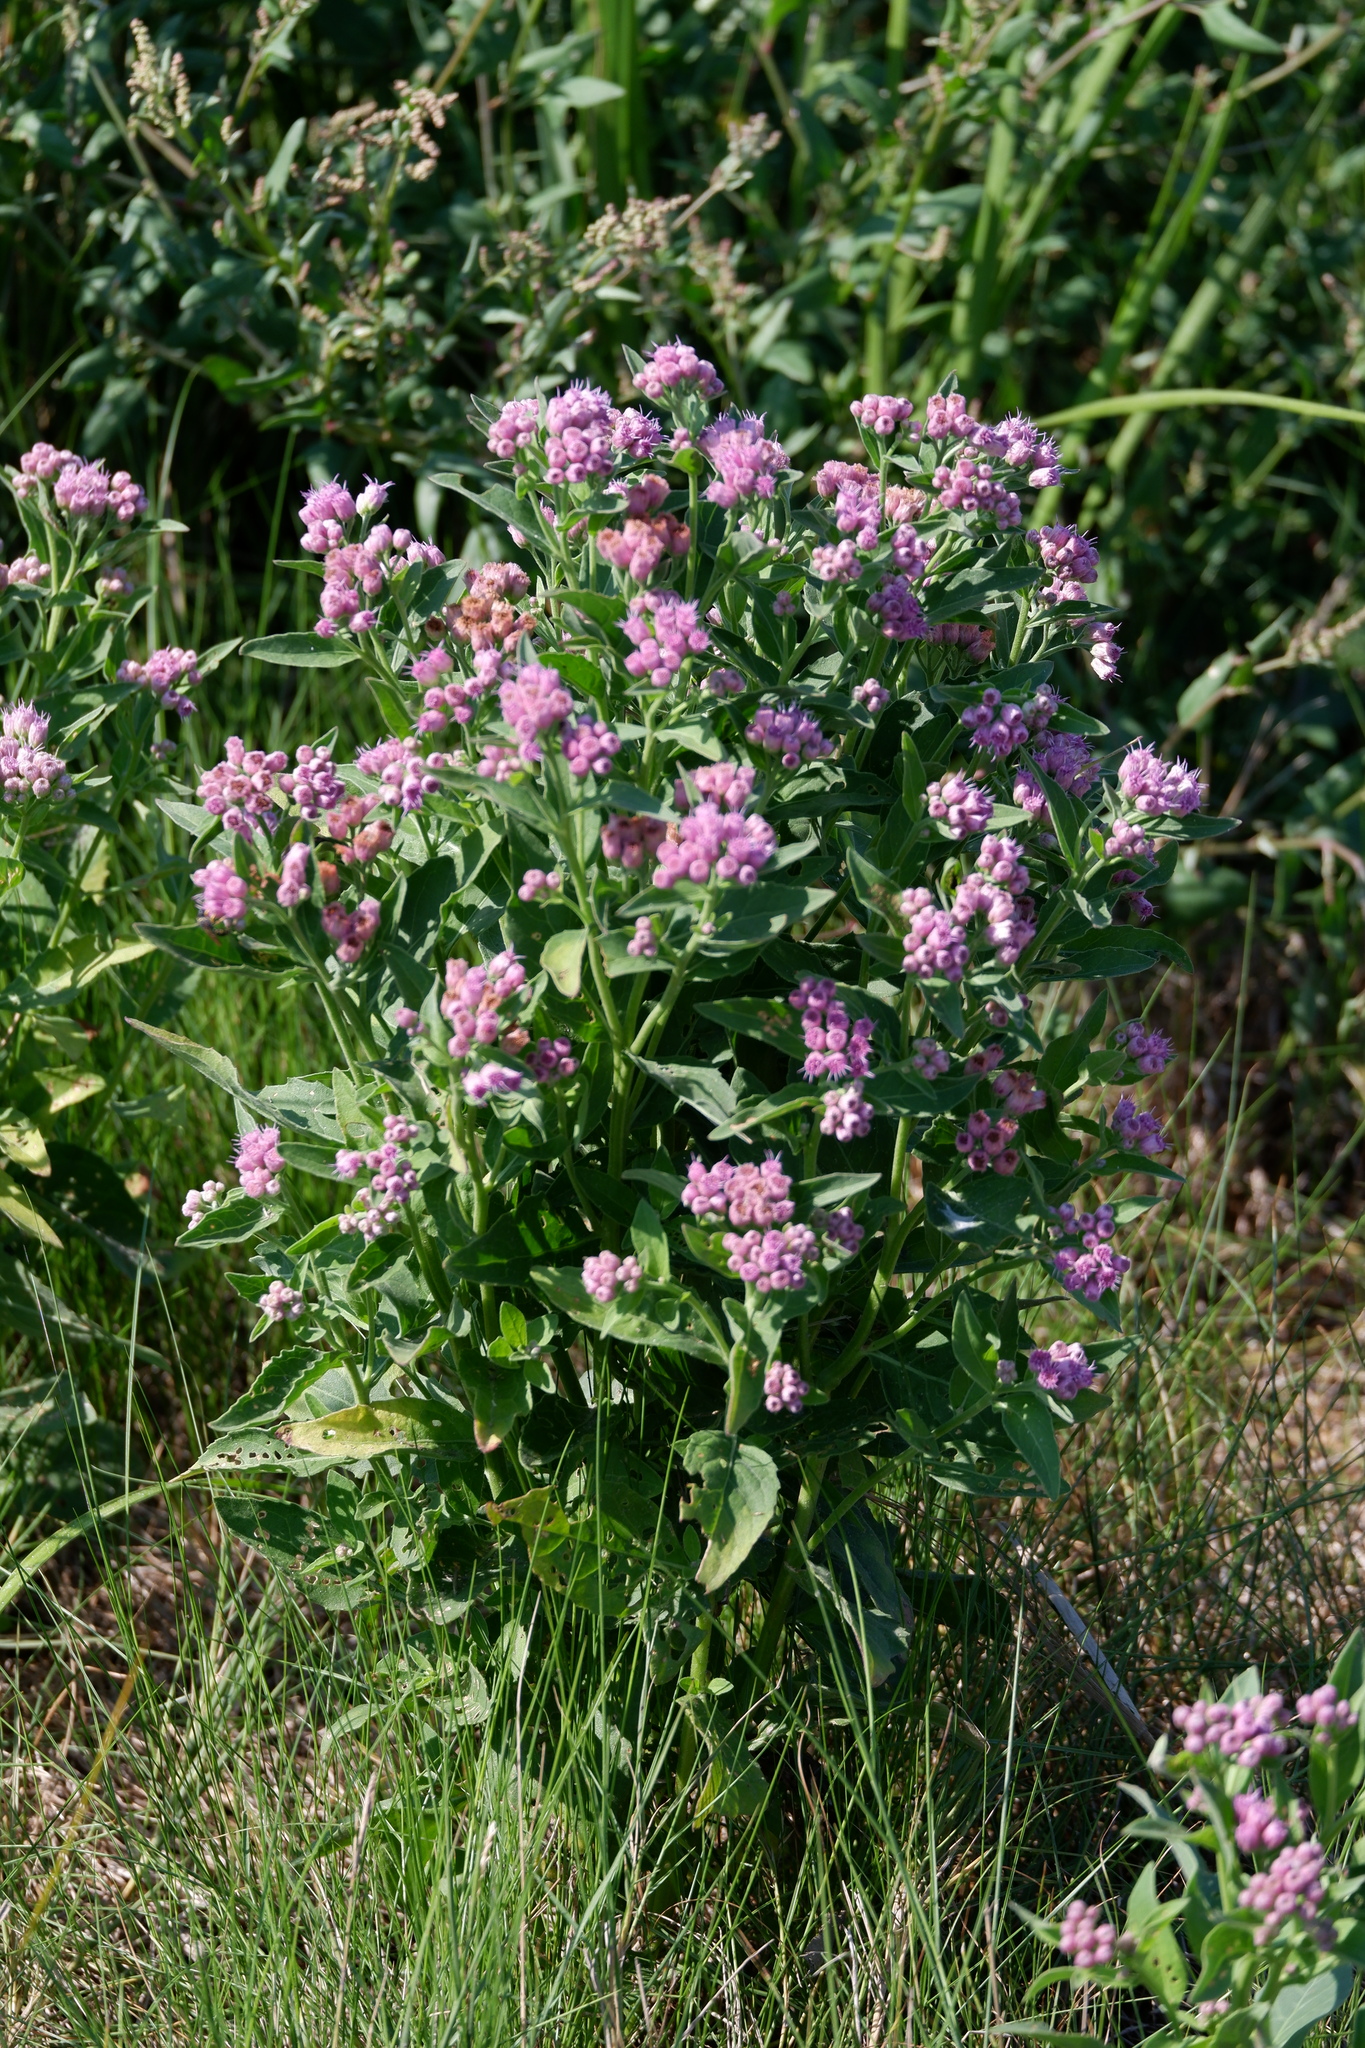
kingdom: Plantae
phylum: Tracheophyta
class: Magnoliopsida
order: Asterales
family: Asteraceae
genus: Pluchea
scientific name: Pluchea odorata
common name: Saltmarsh fleabane
